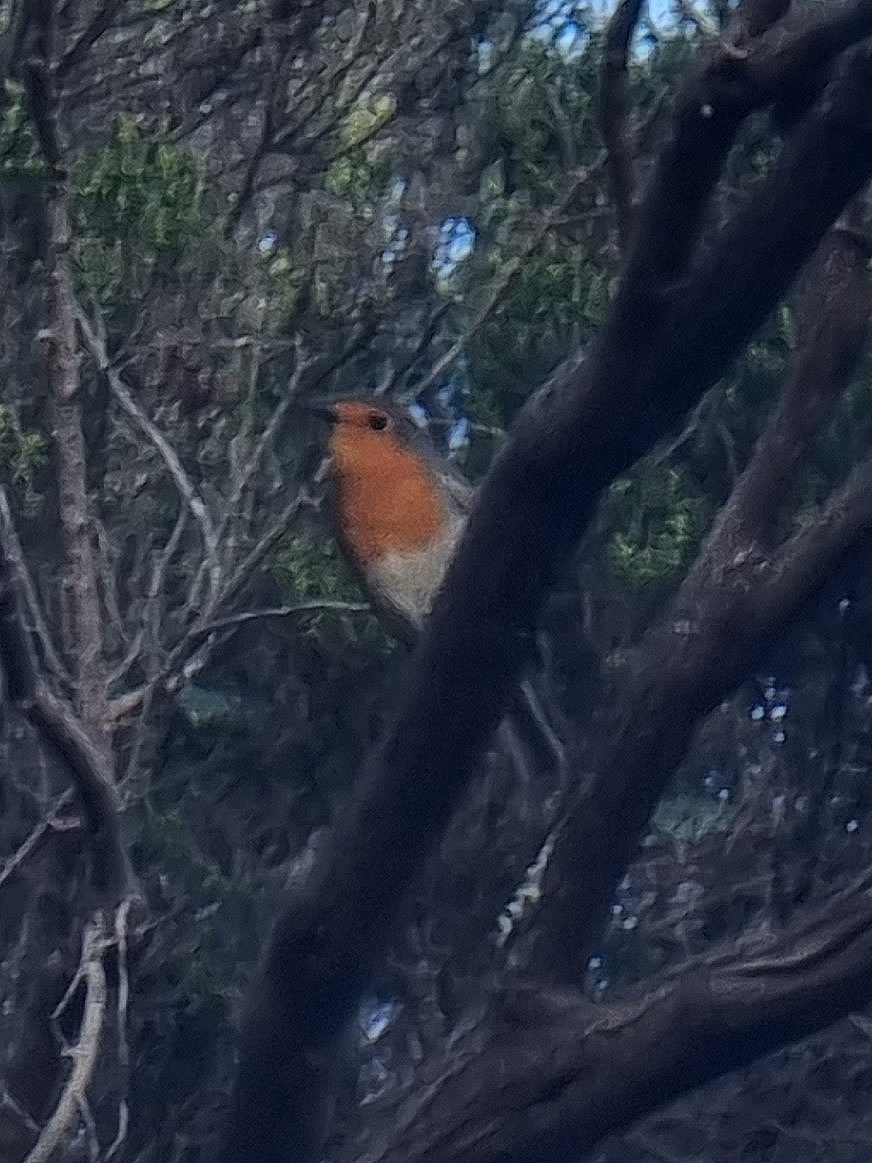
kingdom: Animalia
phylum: Chordata
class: Aves
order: Passeriformes
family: Muscicapidae
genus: Erithacus
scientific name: Erithacus rubecula
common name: European robin
